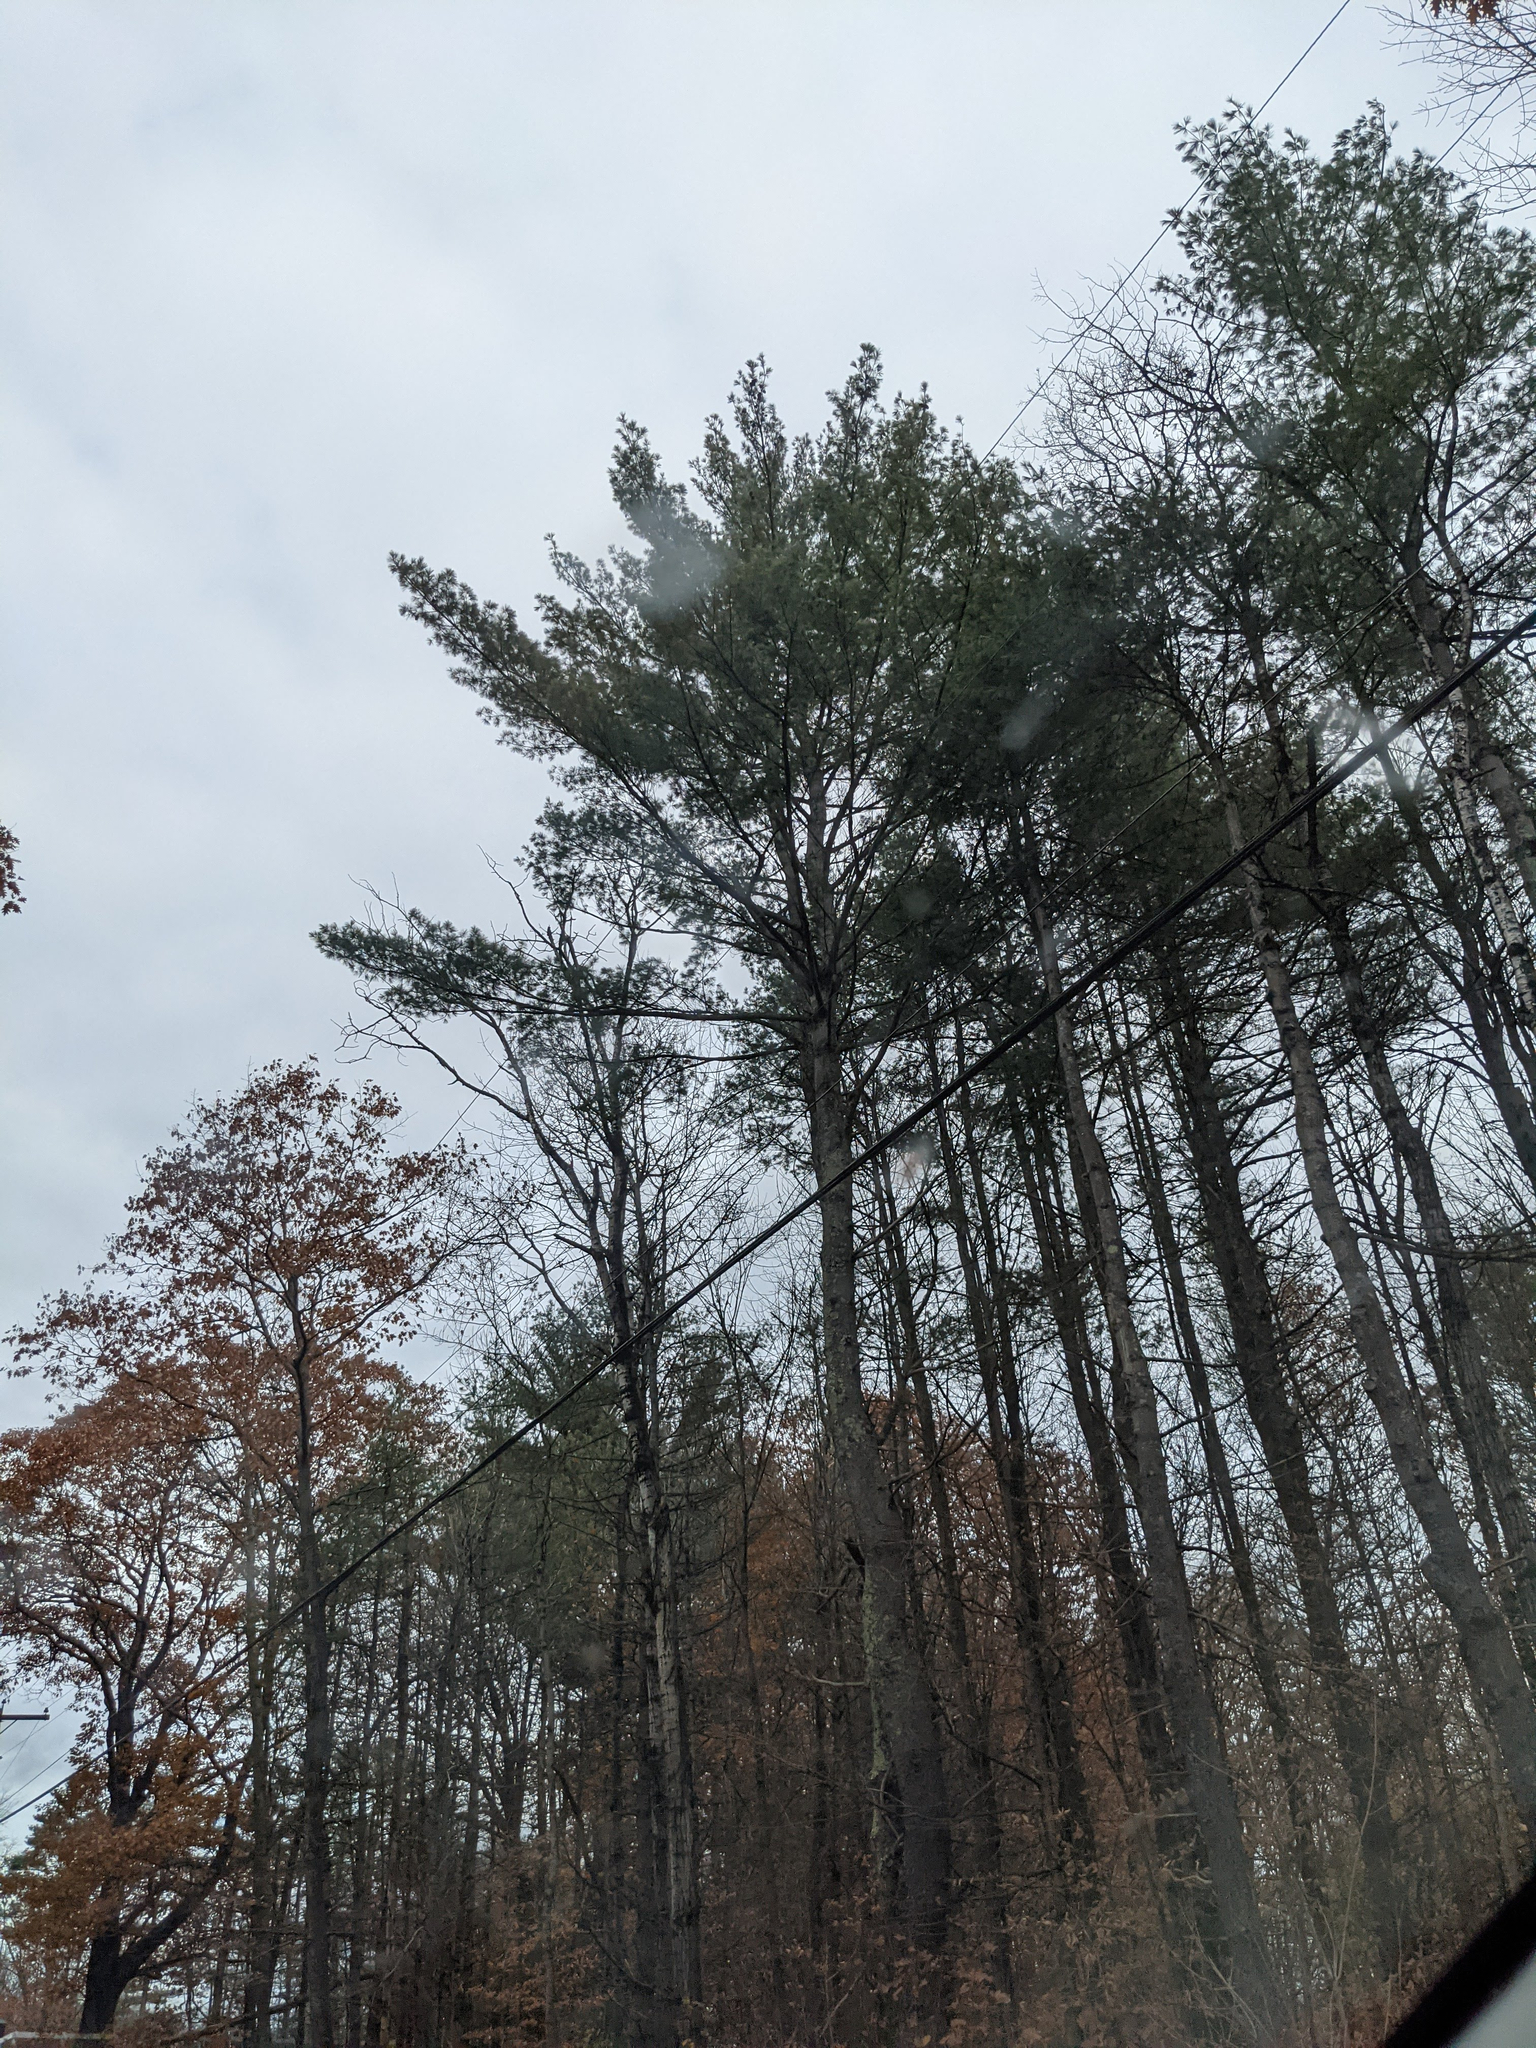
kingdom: Plantae
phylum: Tracheophyta
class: Pinopsida
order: Pinales
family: Pinaceae
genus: Pinus
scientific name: Pinus strobus
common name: Weymouth pine
